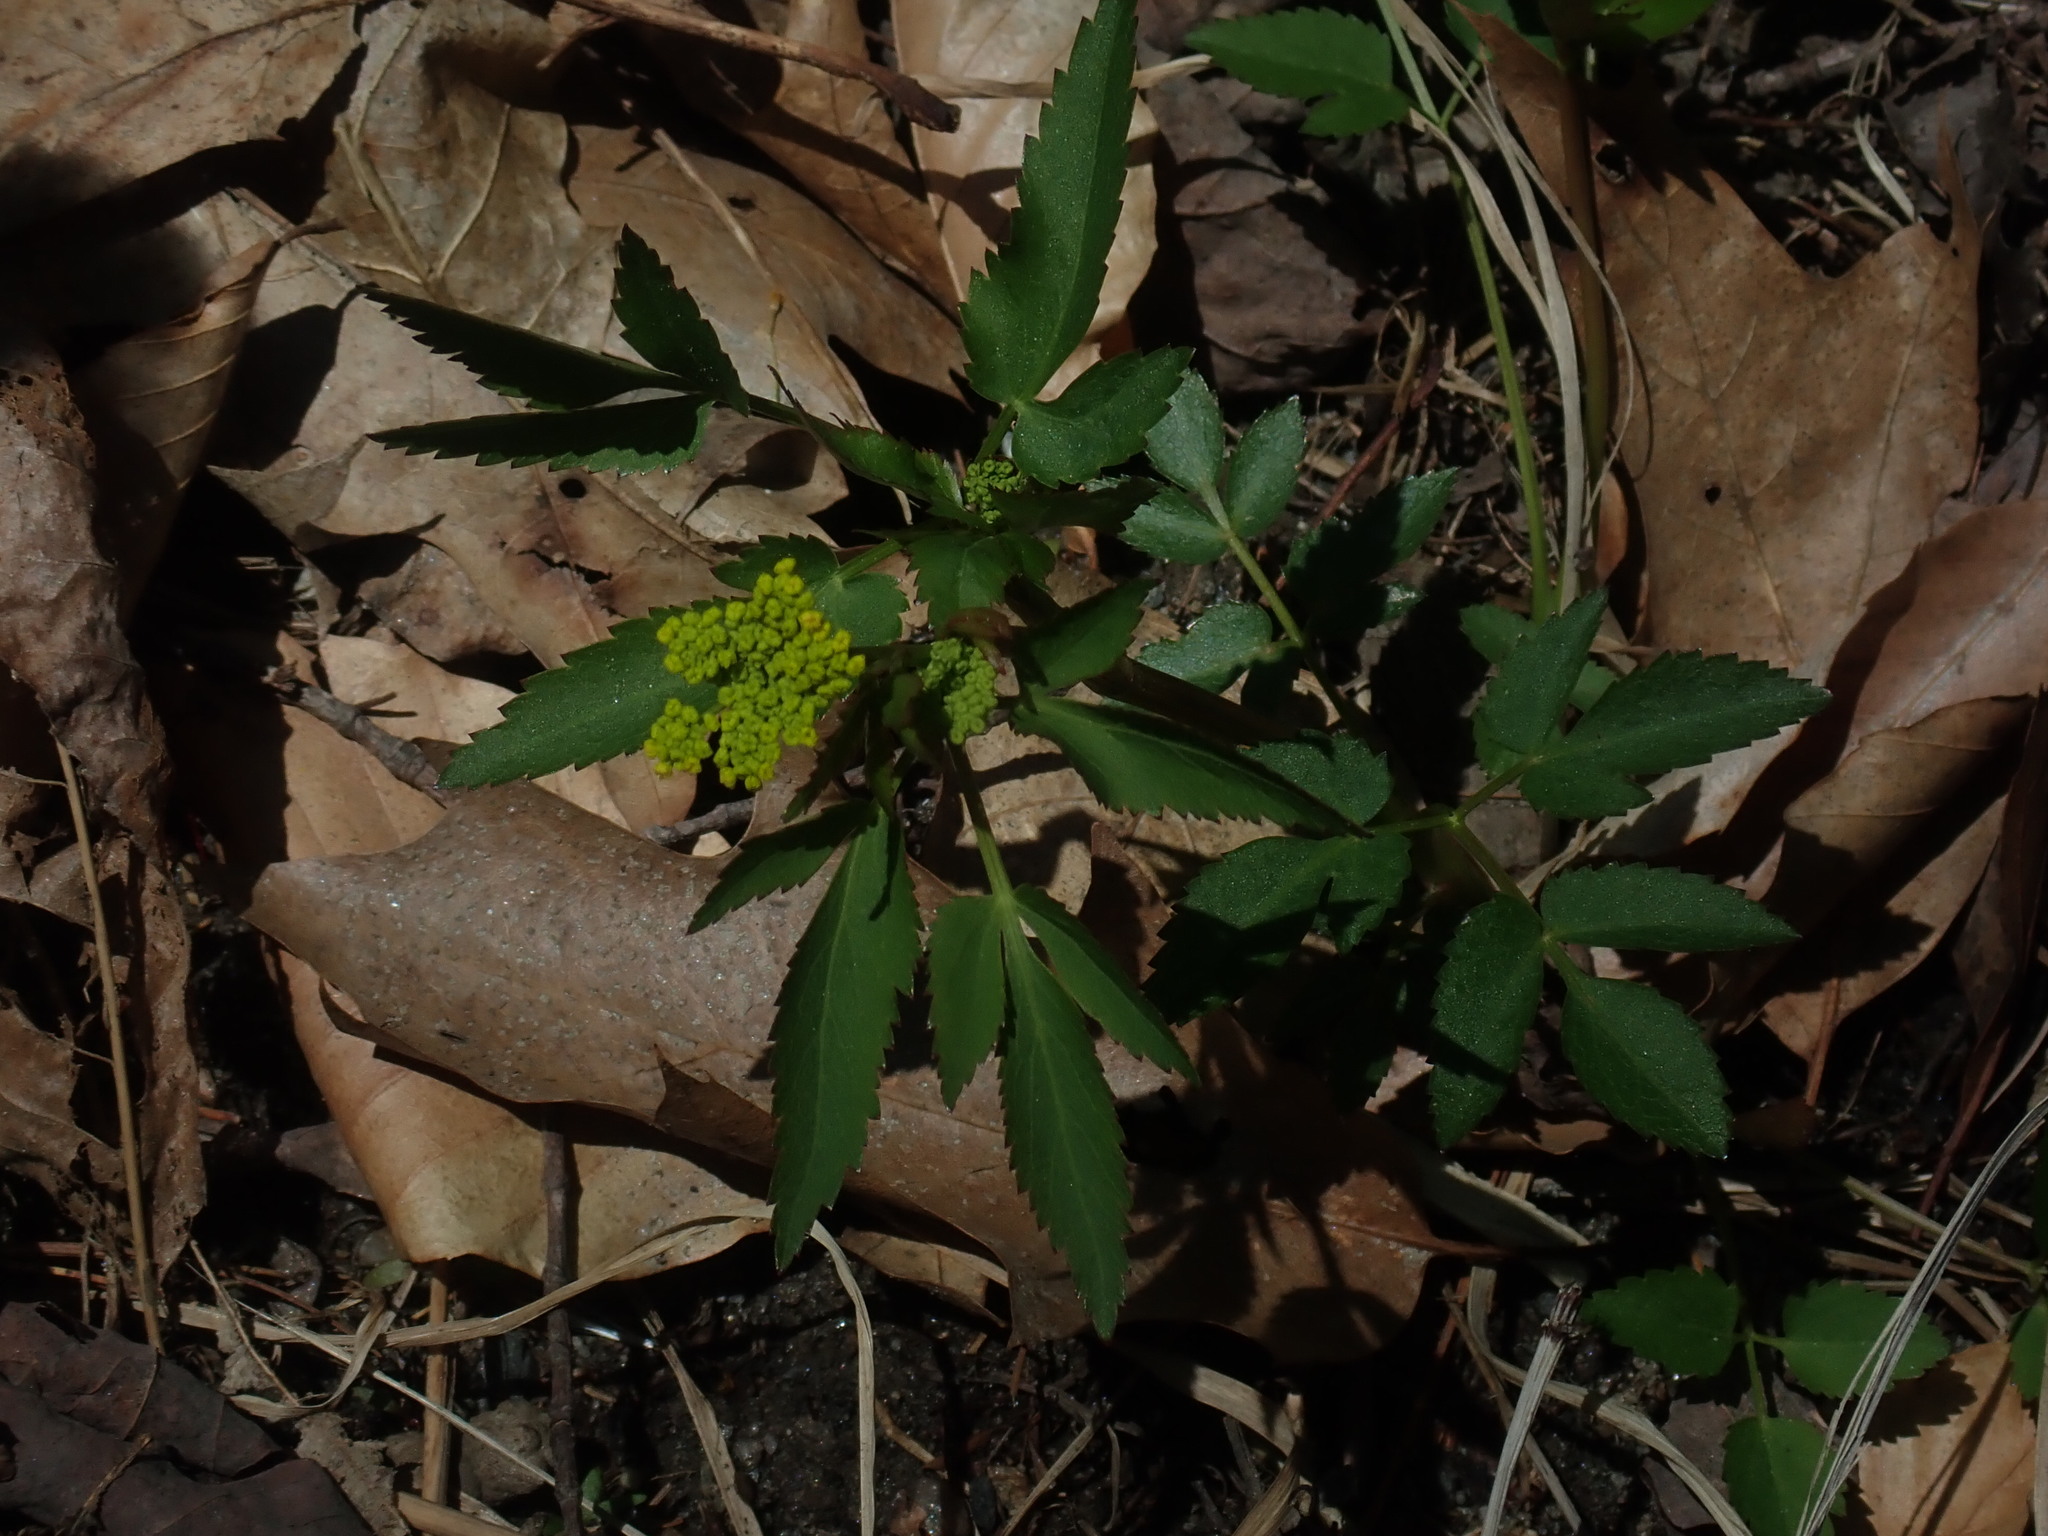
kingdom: Plantae
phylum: Tracheophyta
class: Magnoliopsida
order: Apiales
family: Apiaceae
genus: Zizia
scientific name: Zizia aurea
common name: Golden alexanders
